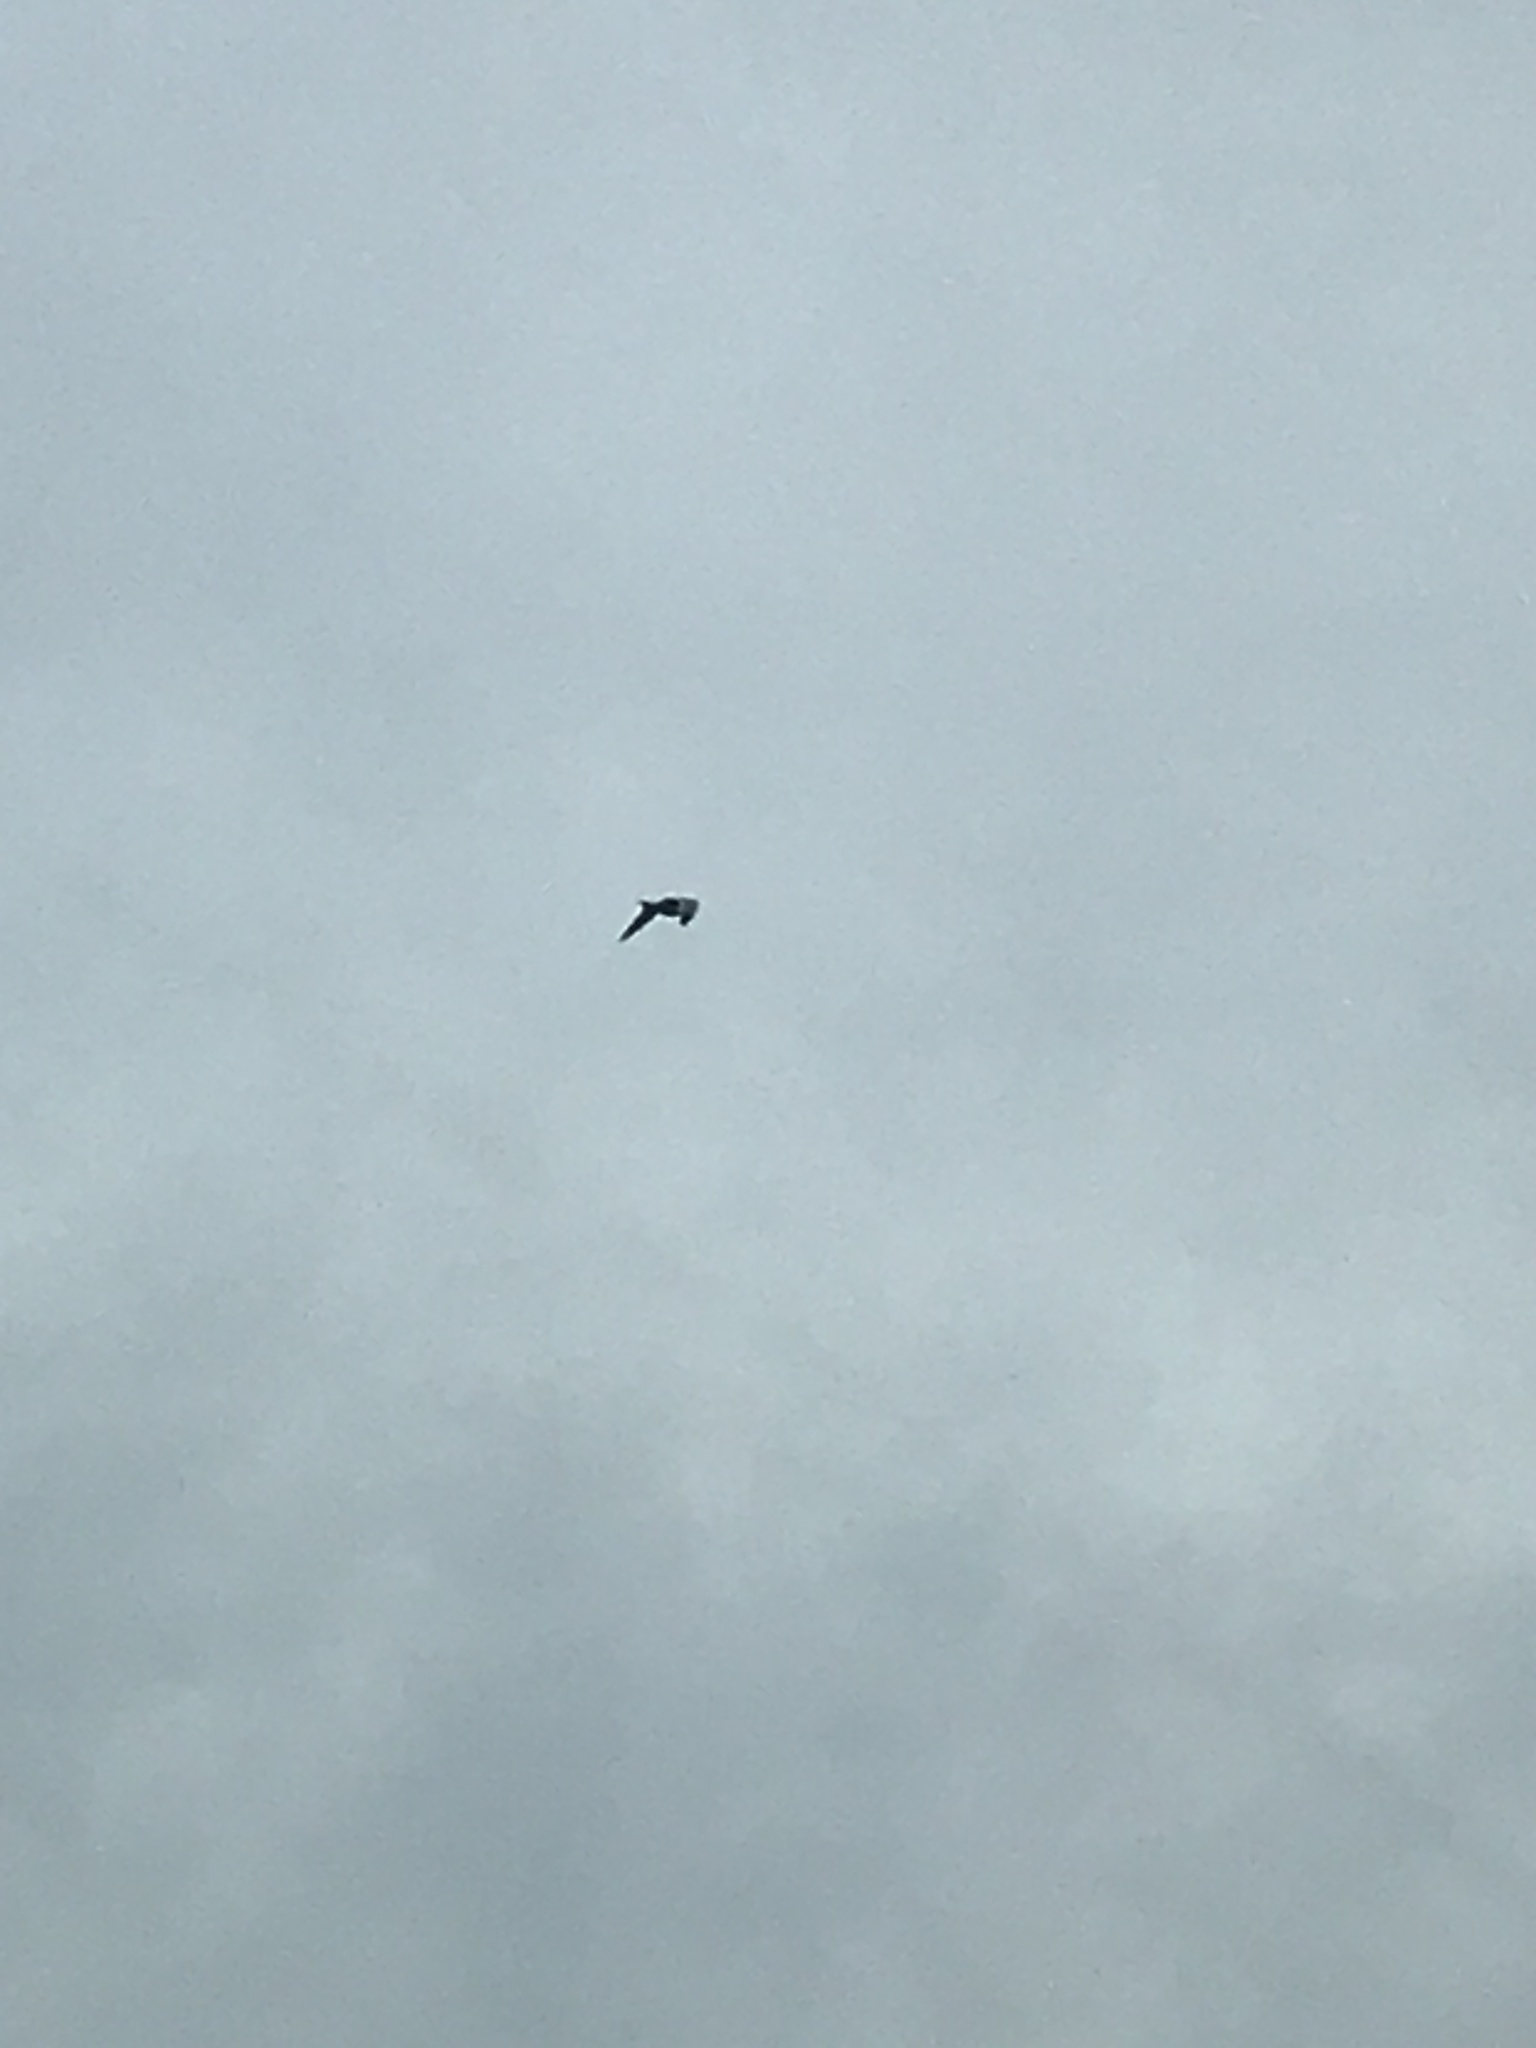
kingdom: Animalia
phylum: Chordata
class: Aves
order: Charadriiformes
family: Laridae
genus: Larus
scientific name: Larus
